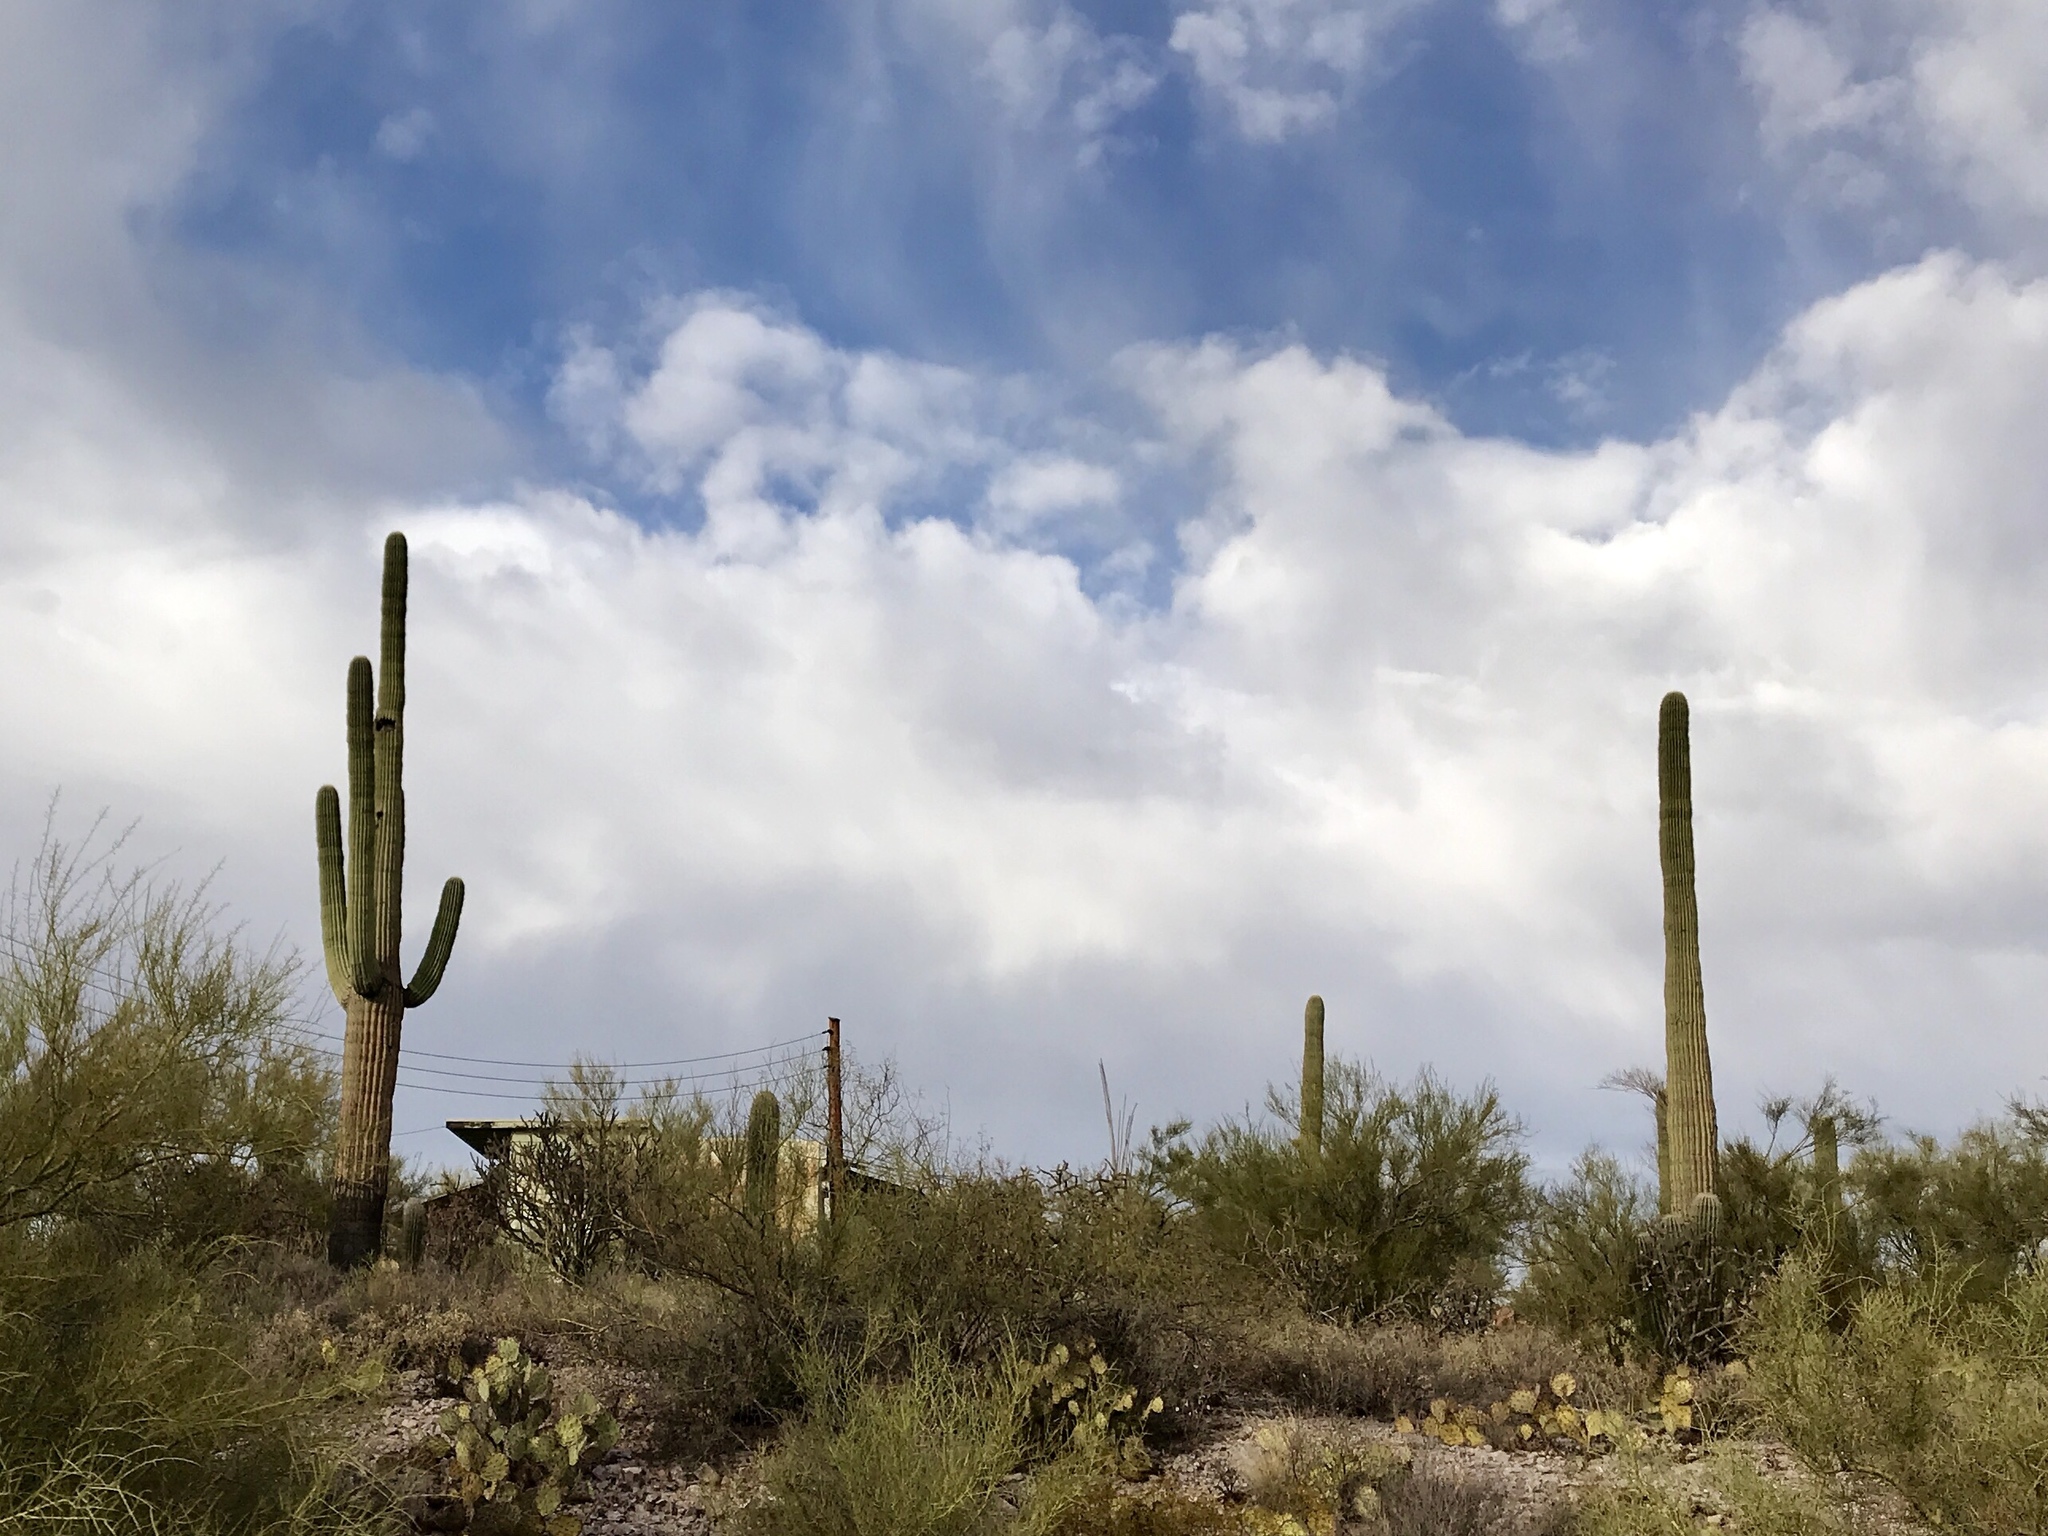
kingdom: Plantae
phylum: Tracheophyta
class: Magnoliopsida
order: Caryophyllales
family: Cactaceae
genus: Carnegiea
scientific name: Carnegiea gigantea
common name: Saguaro
